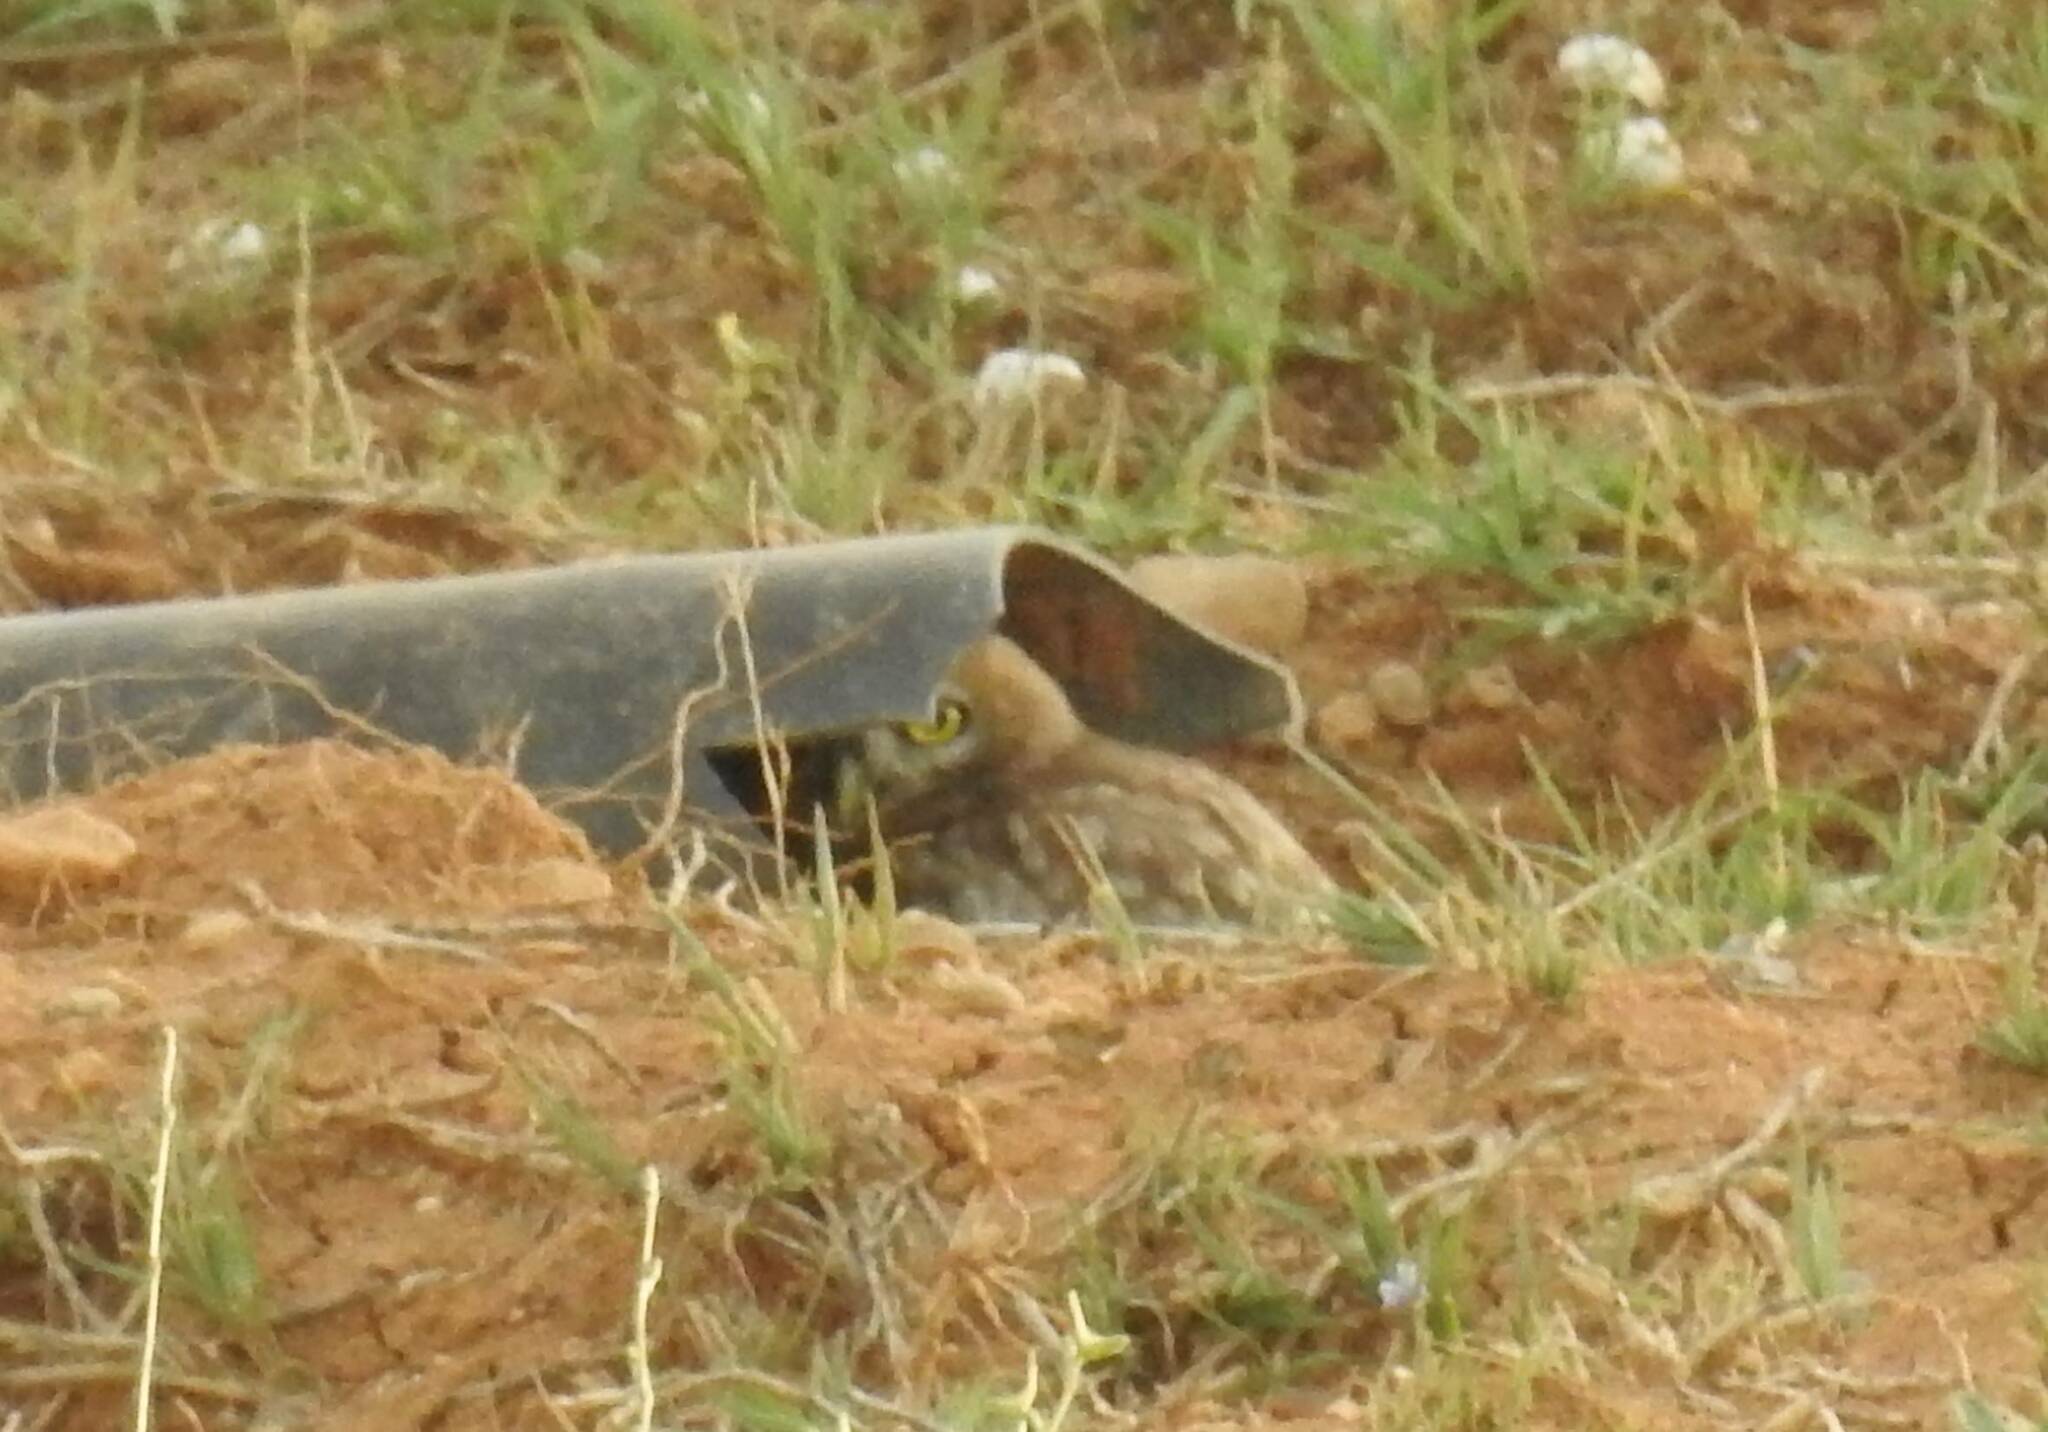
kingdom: Animalia
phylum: Chordata
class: Aves
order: Strigiformes
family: Strigidae
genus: Athene
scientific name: Athene noctua
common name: Little owl
